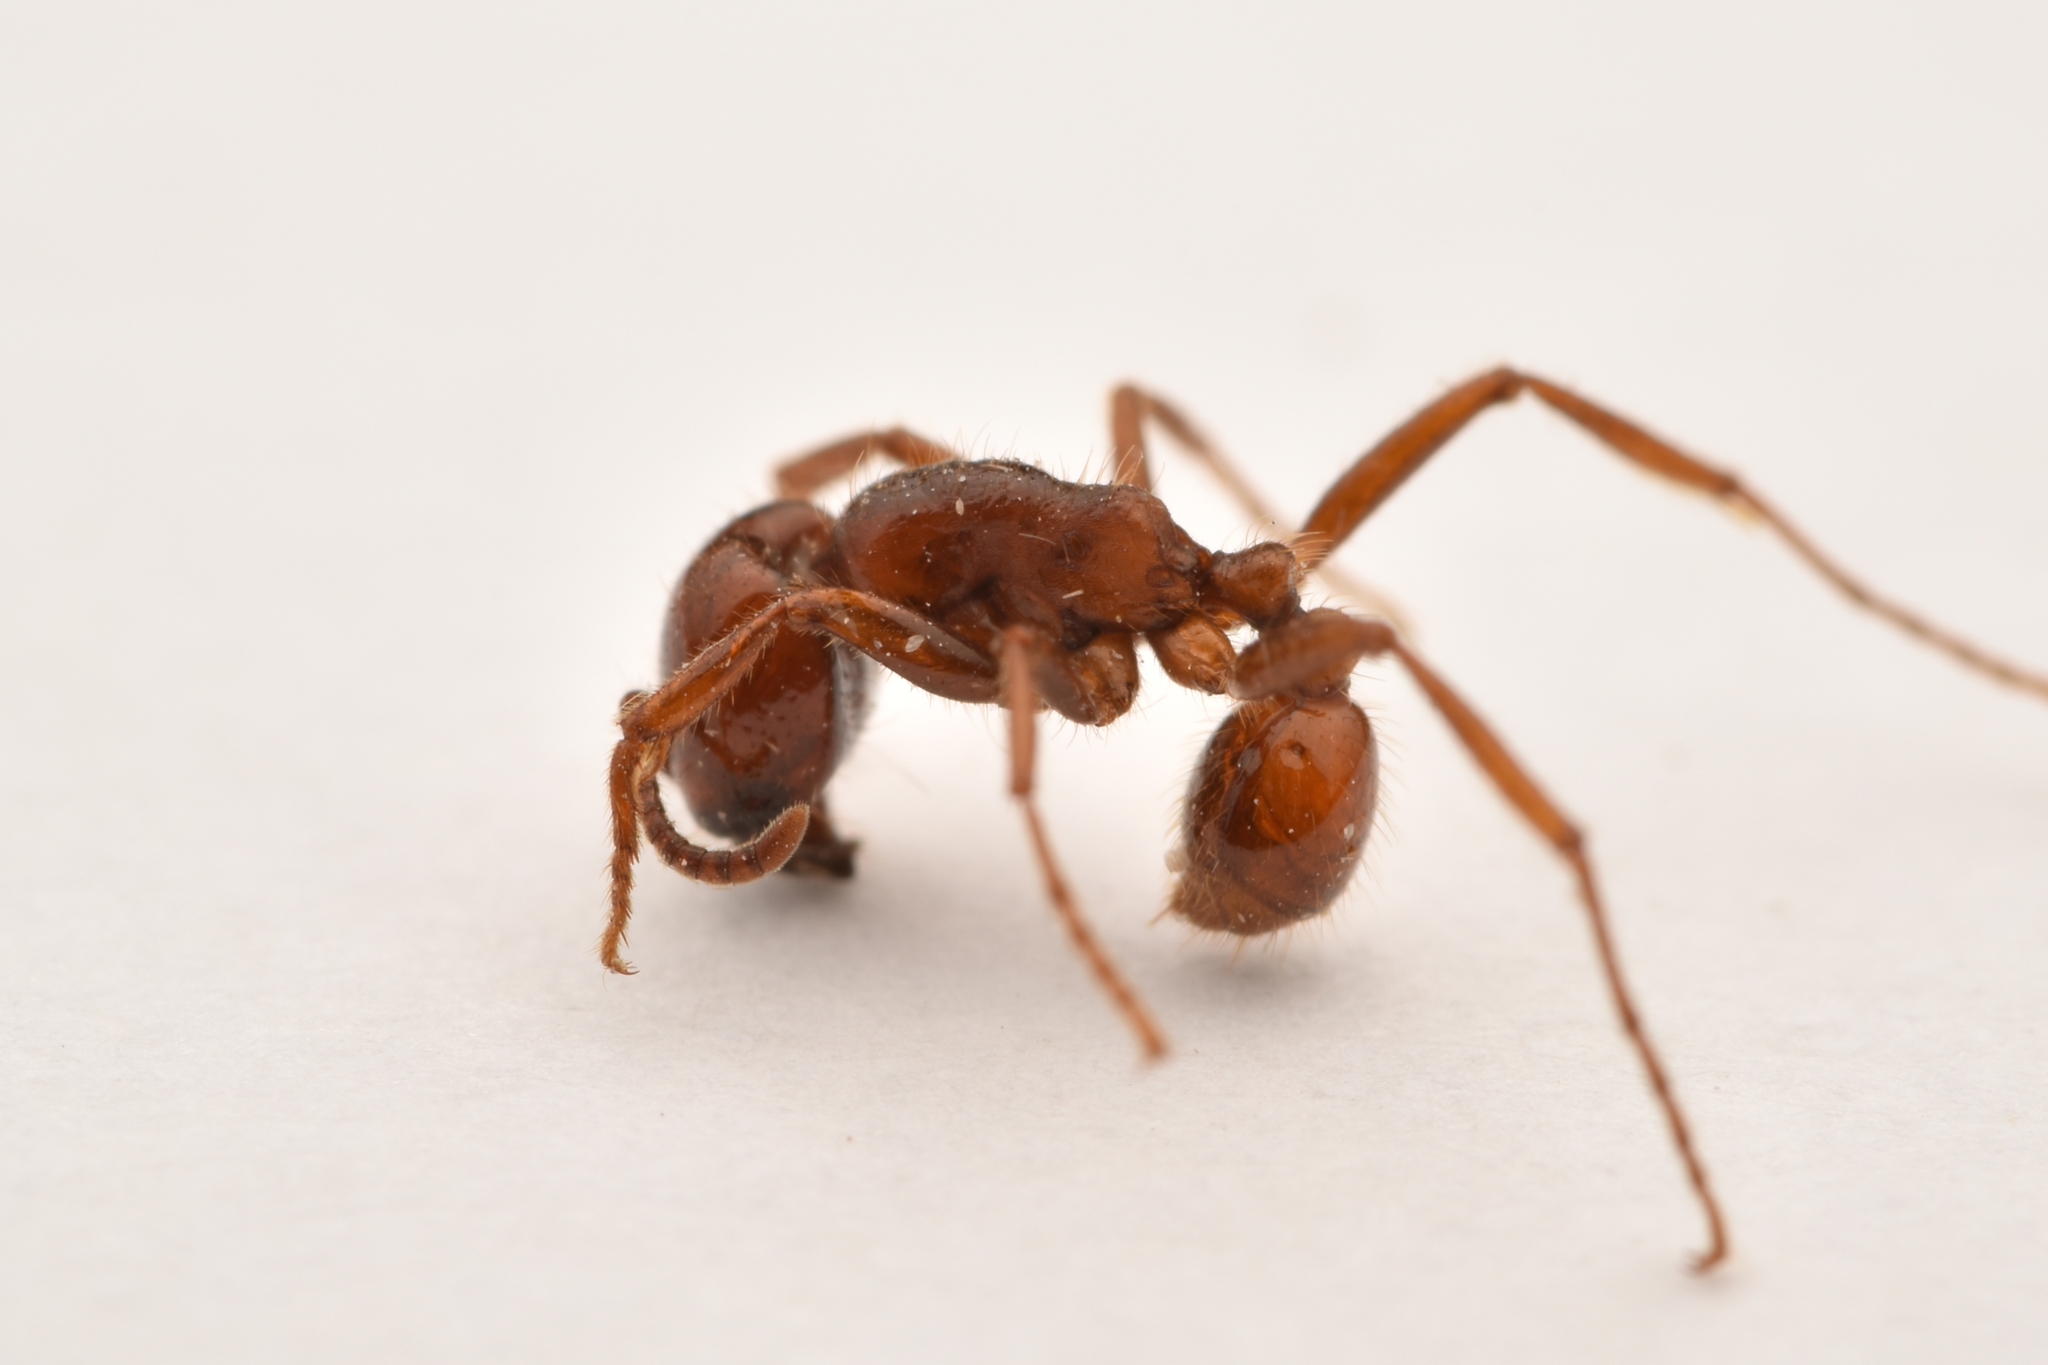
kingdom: Animalia
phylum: Arthropoda
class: Insecta
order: Hymenoptera
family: Formicidae
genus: Labidus
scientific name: Labidus coecus
